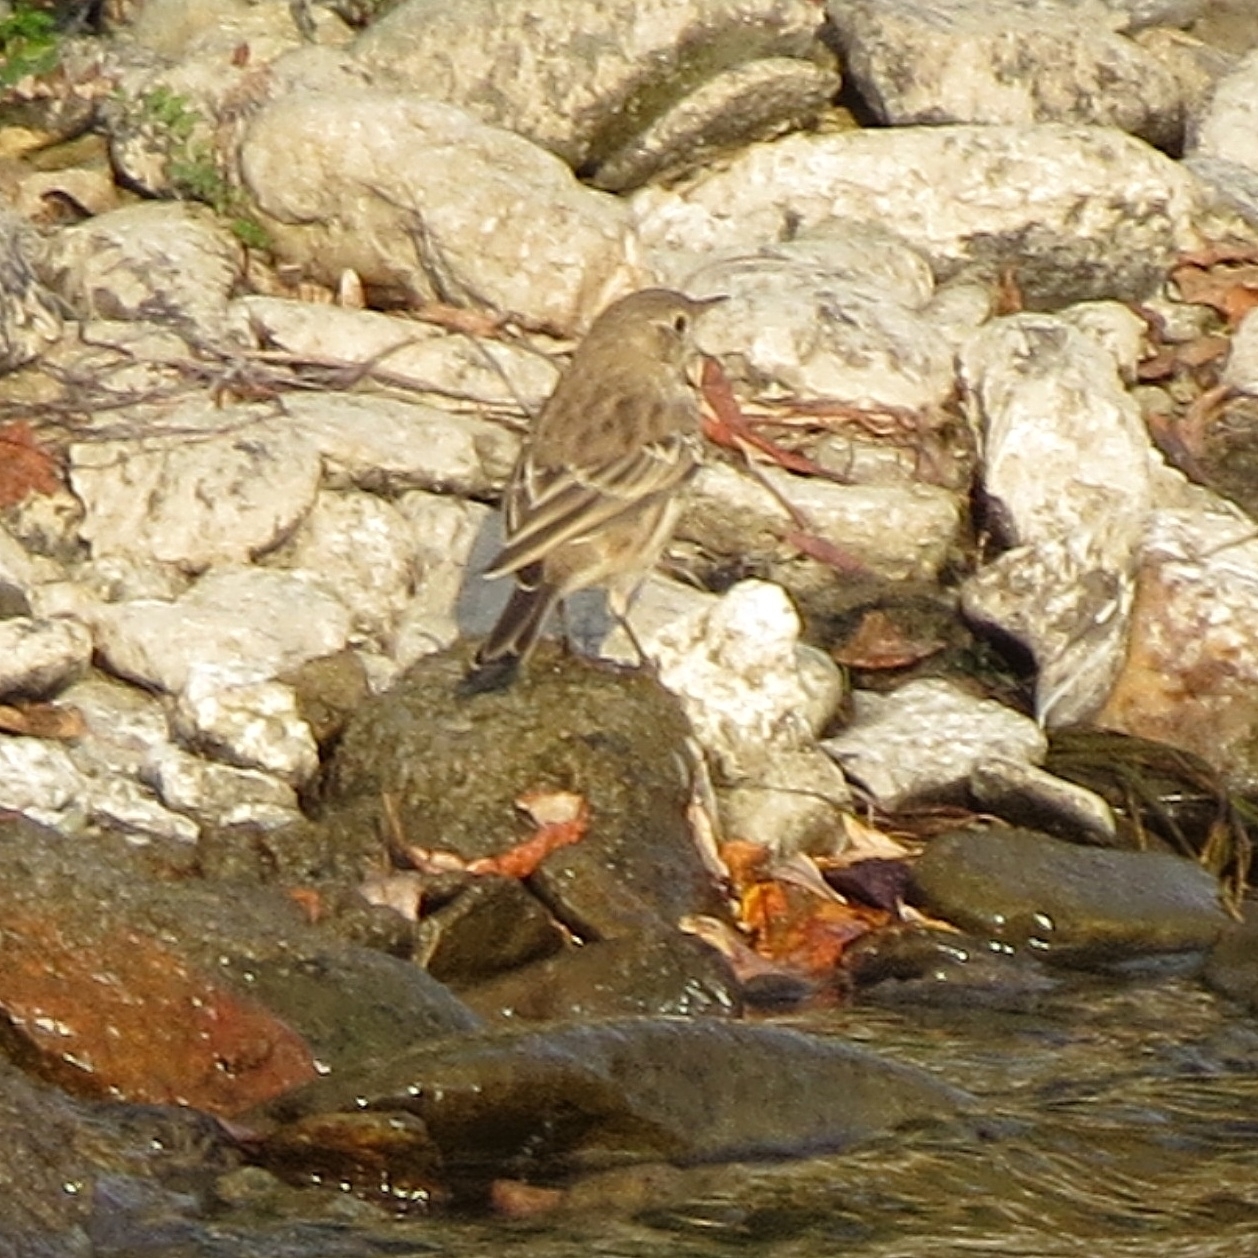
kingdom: Animalia
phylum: Chordata
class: Aves
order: Passeriformes
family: Motacillidae
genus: Anthus
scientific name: Anthus spinoletta
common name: Water pipit
